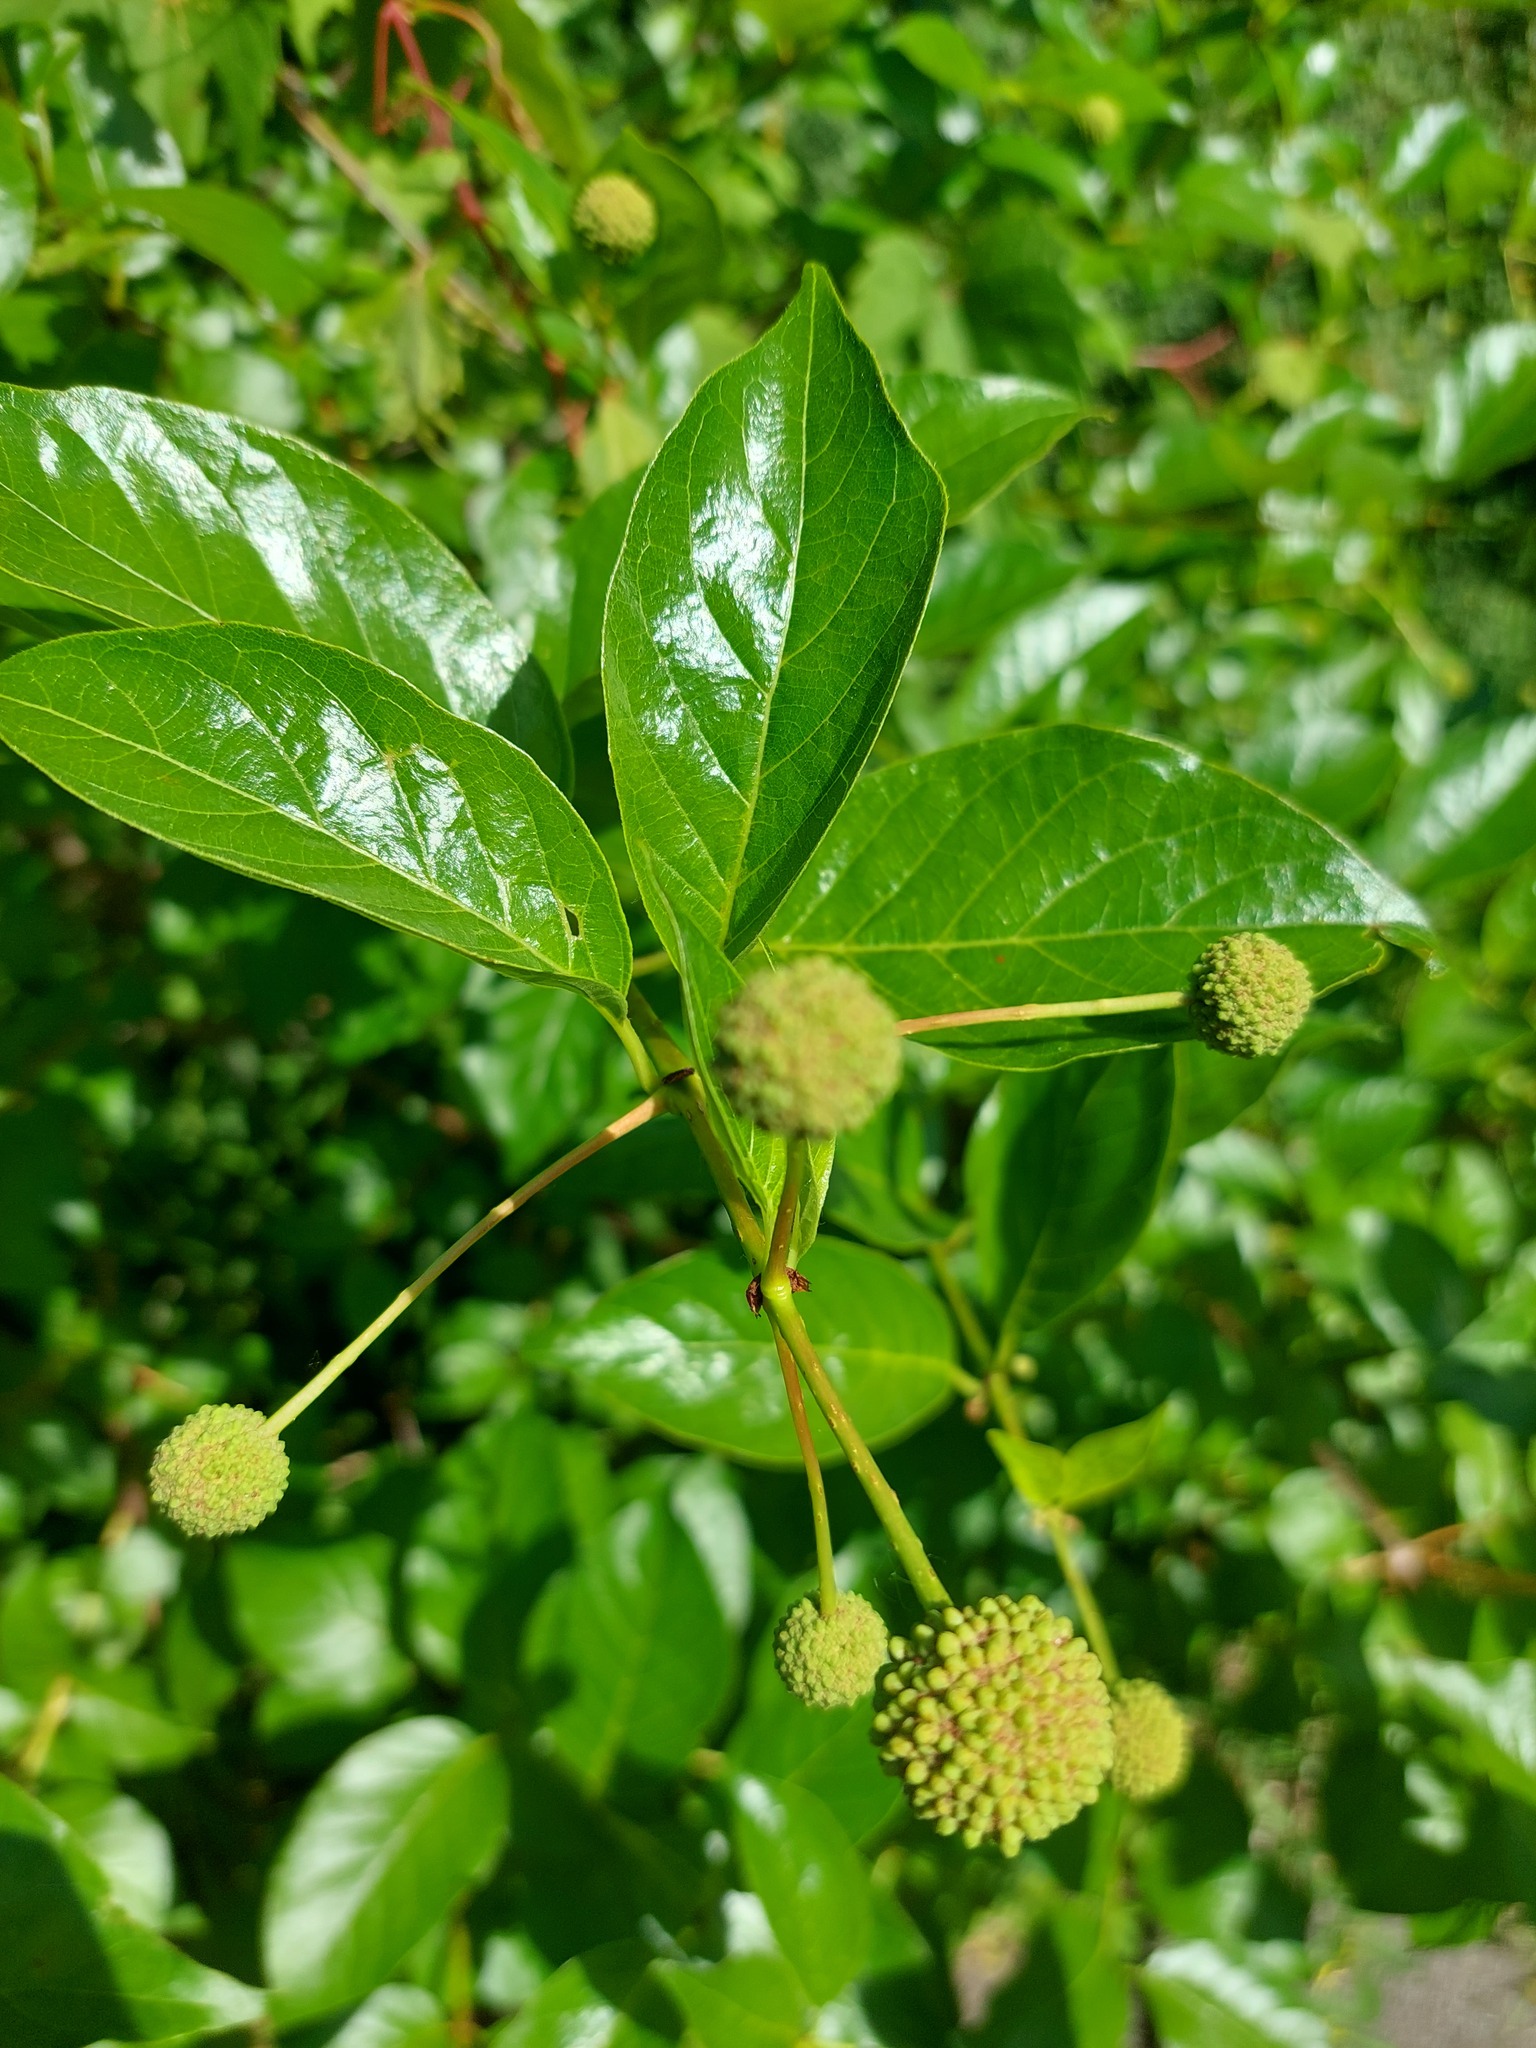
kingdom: Plantae
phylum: Tracheophyta
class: Magnoliopsida
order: Gentianales
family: Rubiaceae
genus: Cephalanthus
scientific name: Cephalanthus occidentalis
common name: Button-willow
